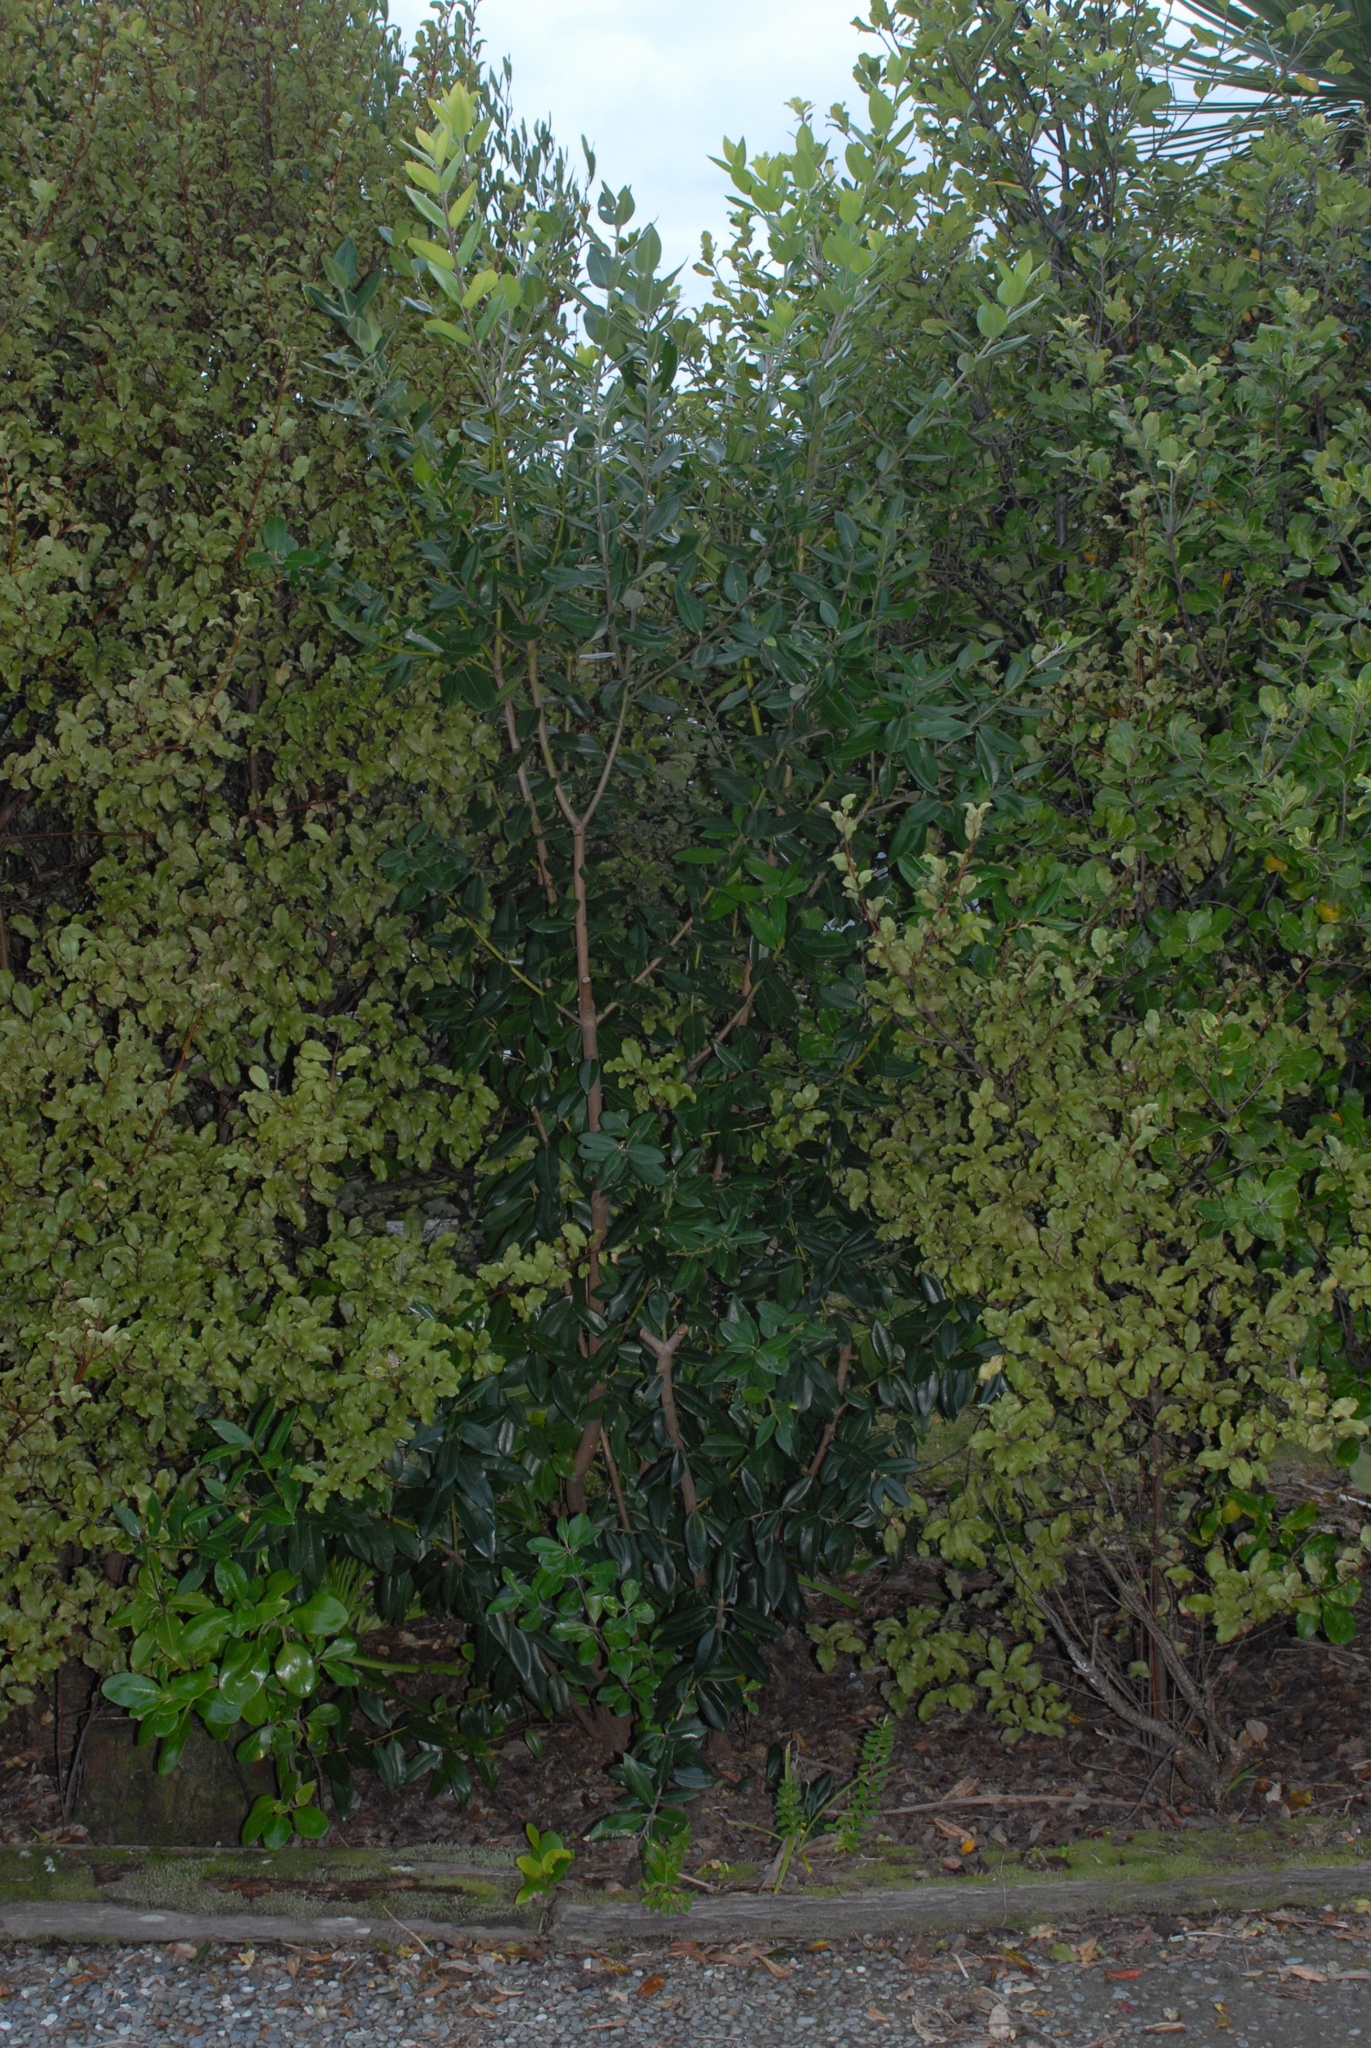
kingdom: Plantae
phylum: Tracheophyta
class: Magnoliopsida
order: Myrtales
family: Myrtaceae
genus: Metrosideros
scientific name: Metrosideros excelsa
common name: New zealand christmastree
